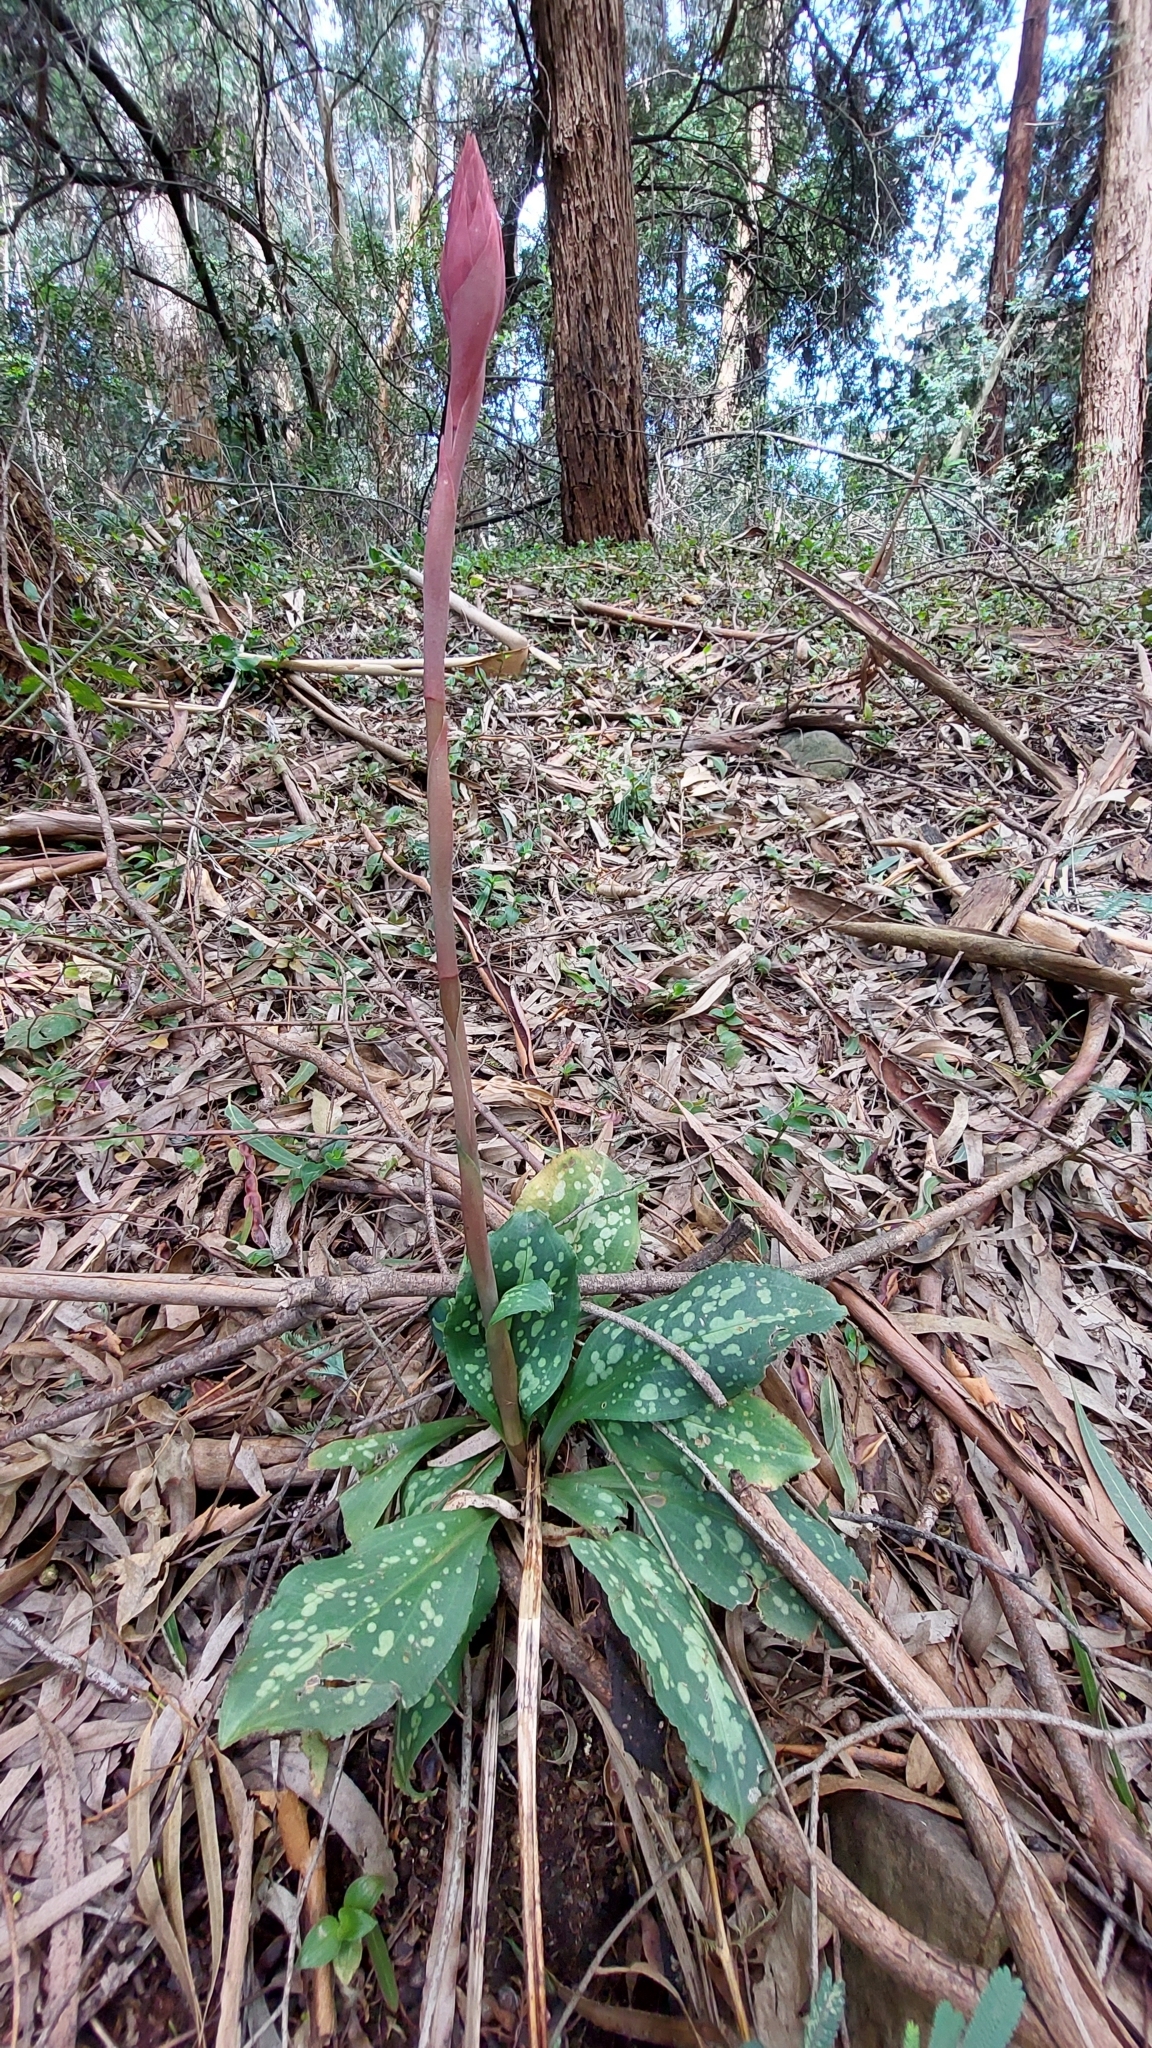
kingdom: Plantae
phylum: Tracheophyta
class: Liliopsida
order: Asparagales
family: Orchidaceae
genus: Stenorrhynchos
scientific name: Stenorrhynchos albidomaculatum
